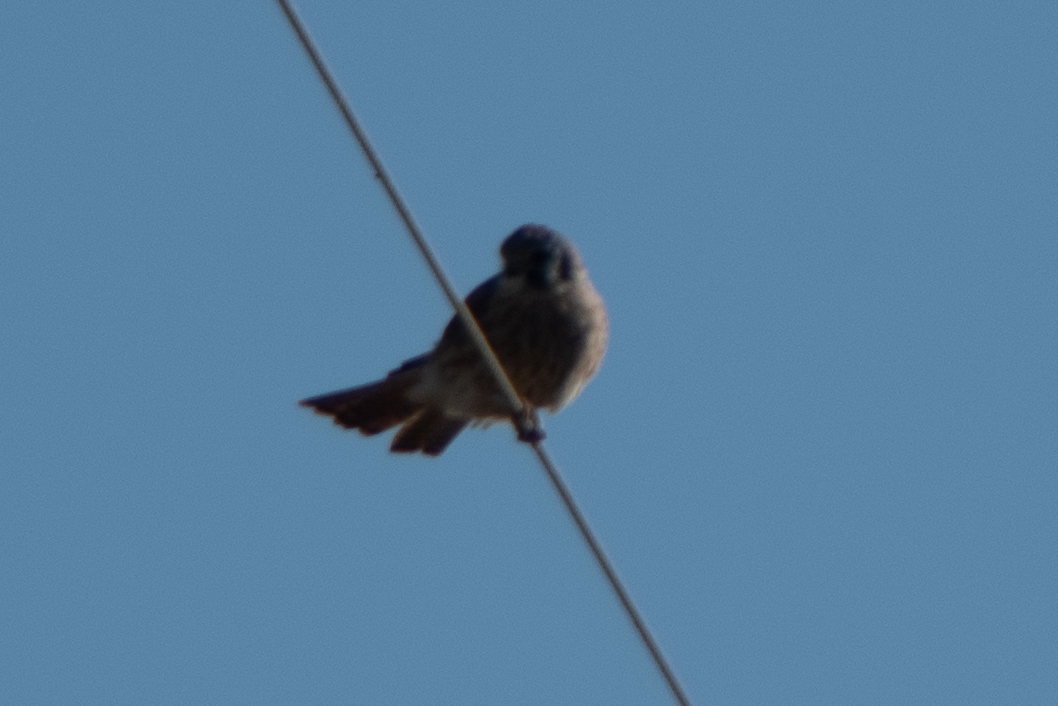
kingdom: Animalia
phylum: Chordata
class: Aves
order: Falconiformes
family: Falconidae
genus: Falco
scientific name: Falco sparverius
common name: American kestrel
